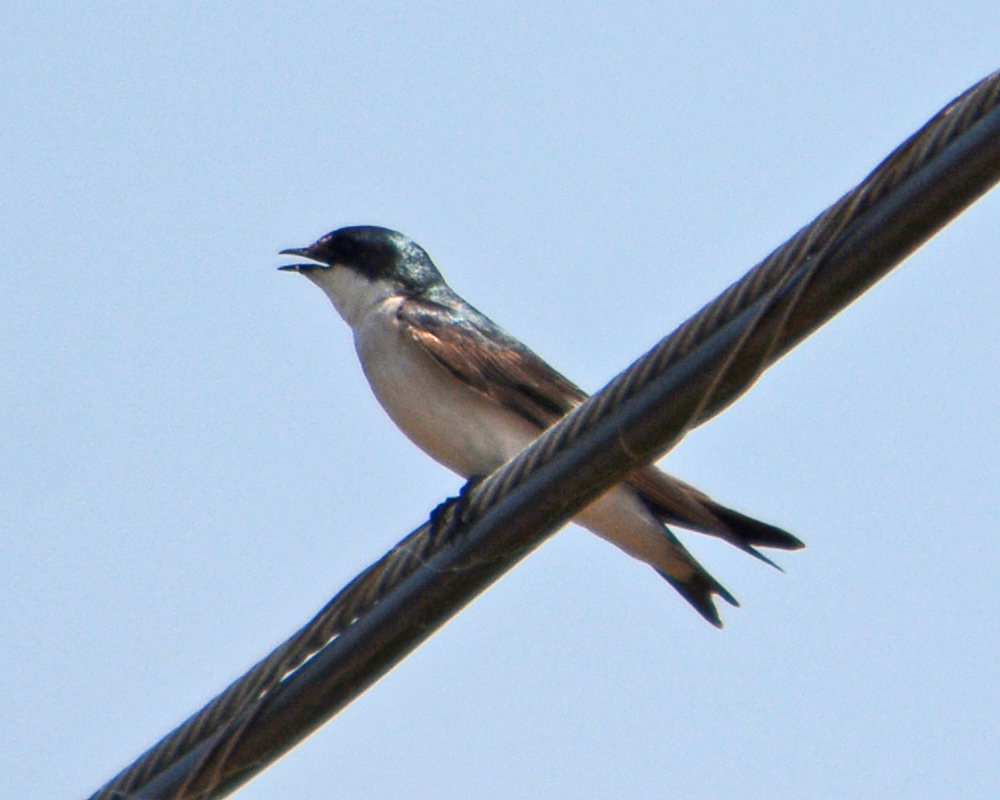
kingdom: Animalia
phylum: Chordata
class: Aves
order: Passeriformes
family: Hirundinidae
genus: Tachycineta
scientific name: Tachycineta albilinea
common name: Mangrove swallow
